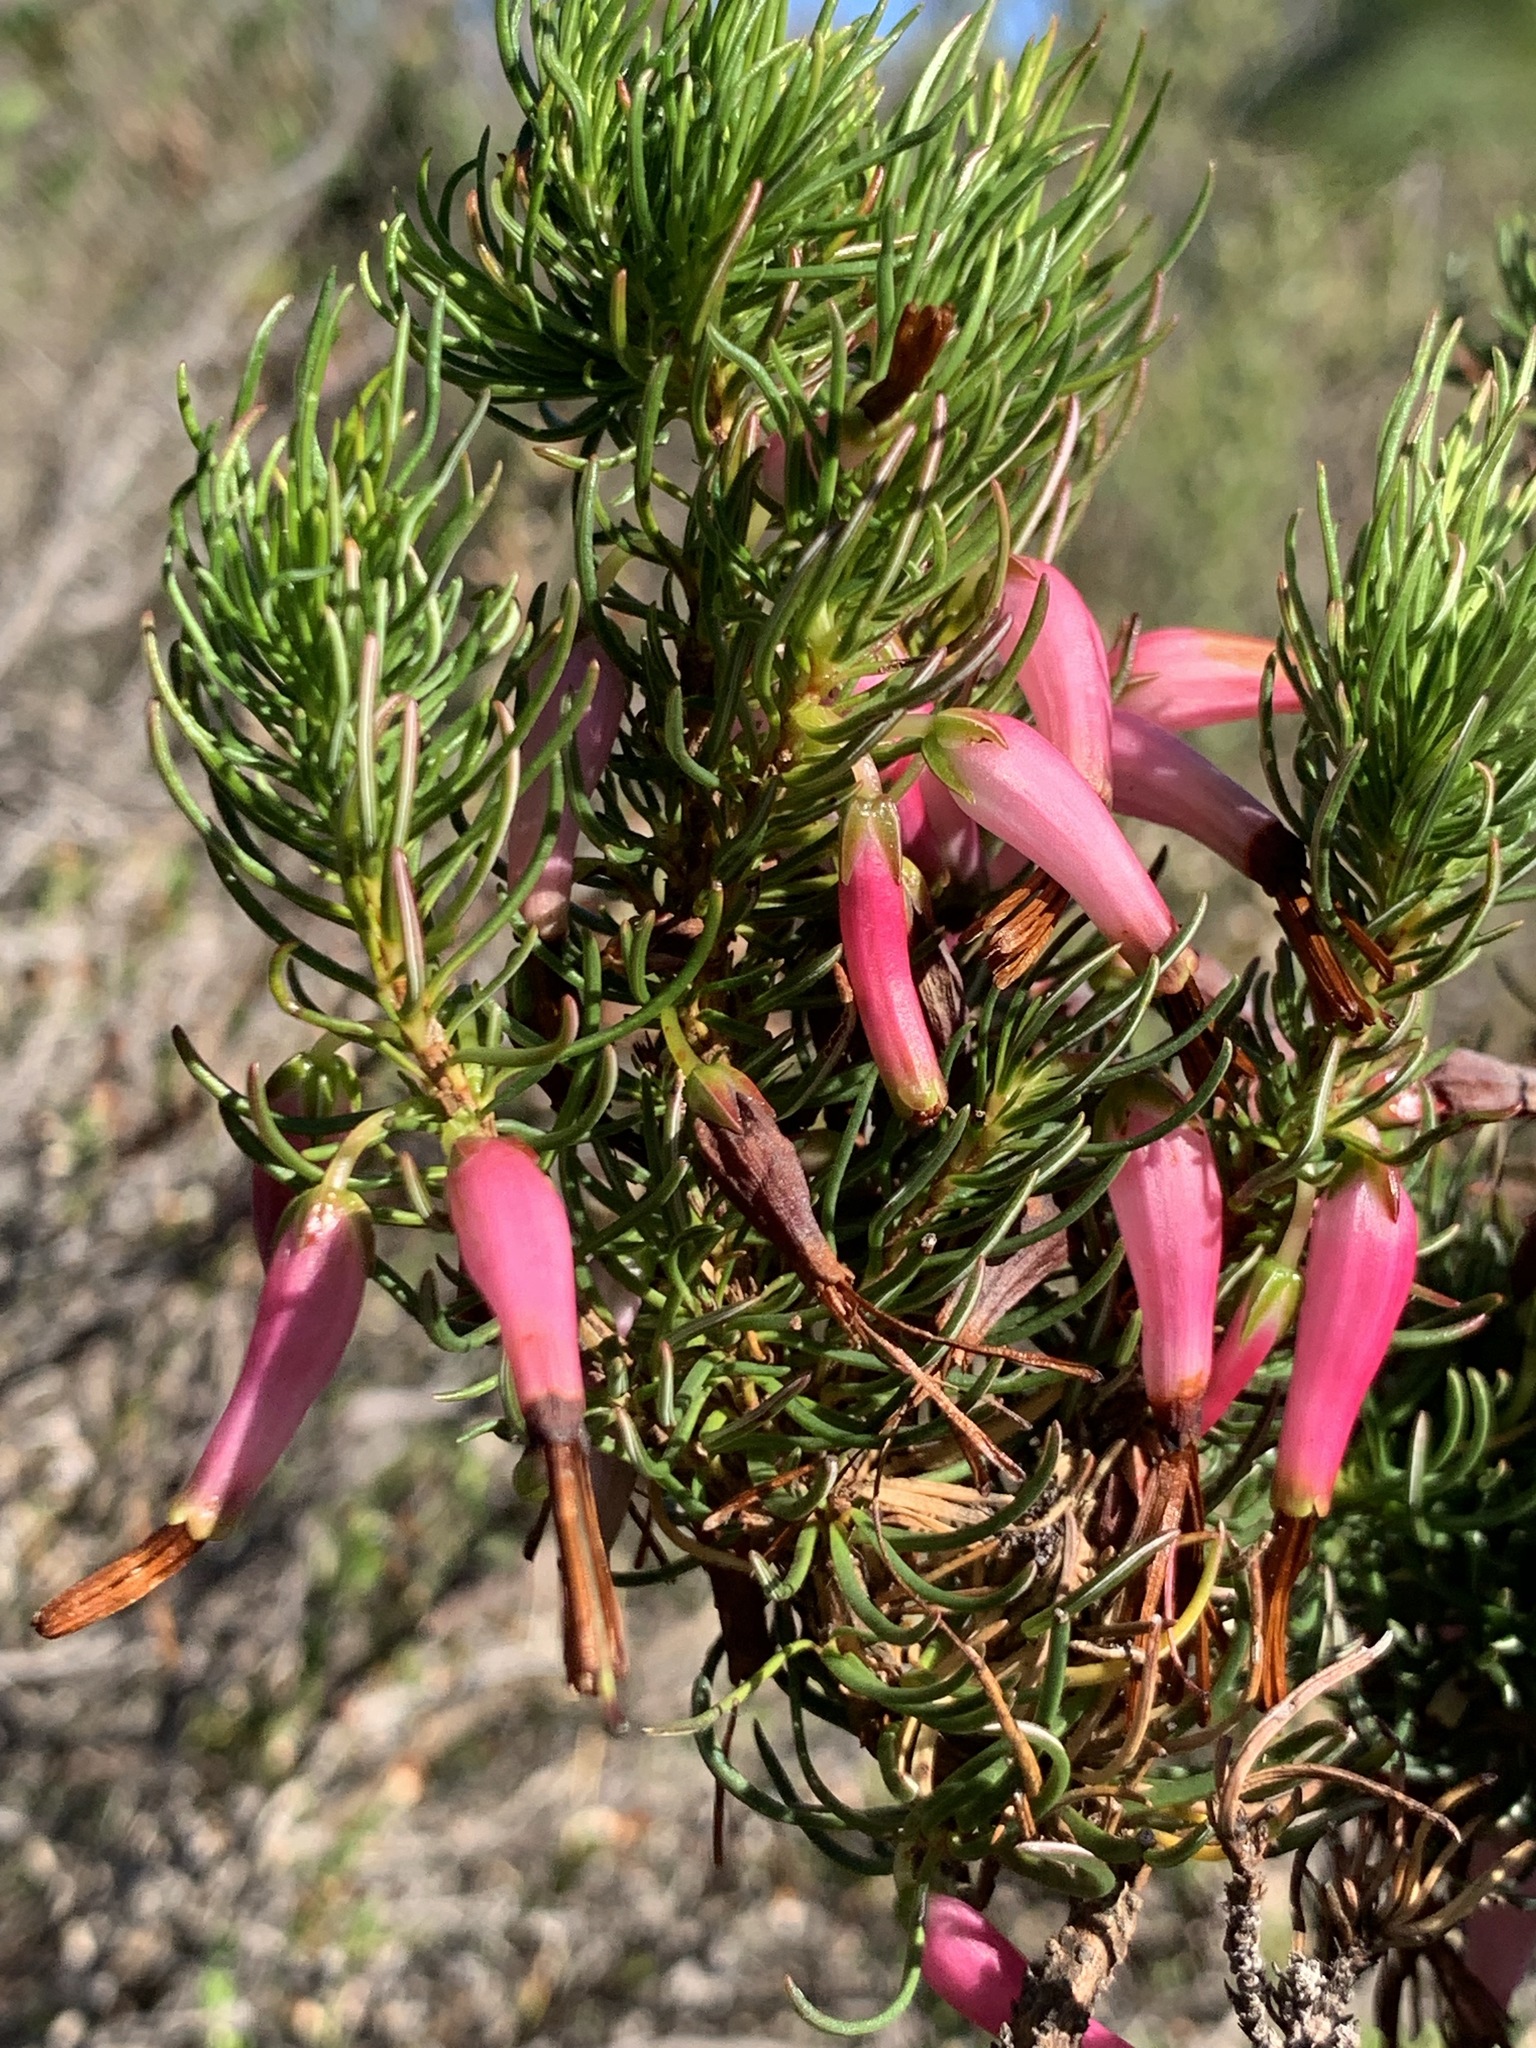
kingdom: Plantae
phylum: Tracheophyta
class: Magnoliopsida
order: Ericales
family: Ericaceae
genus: Erica
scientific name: Erica plukenetii
